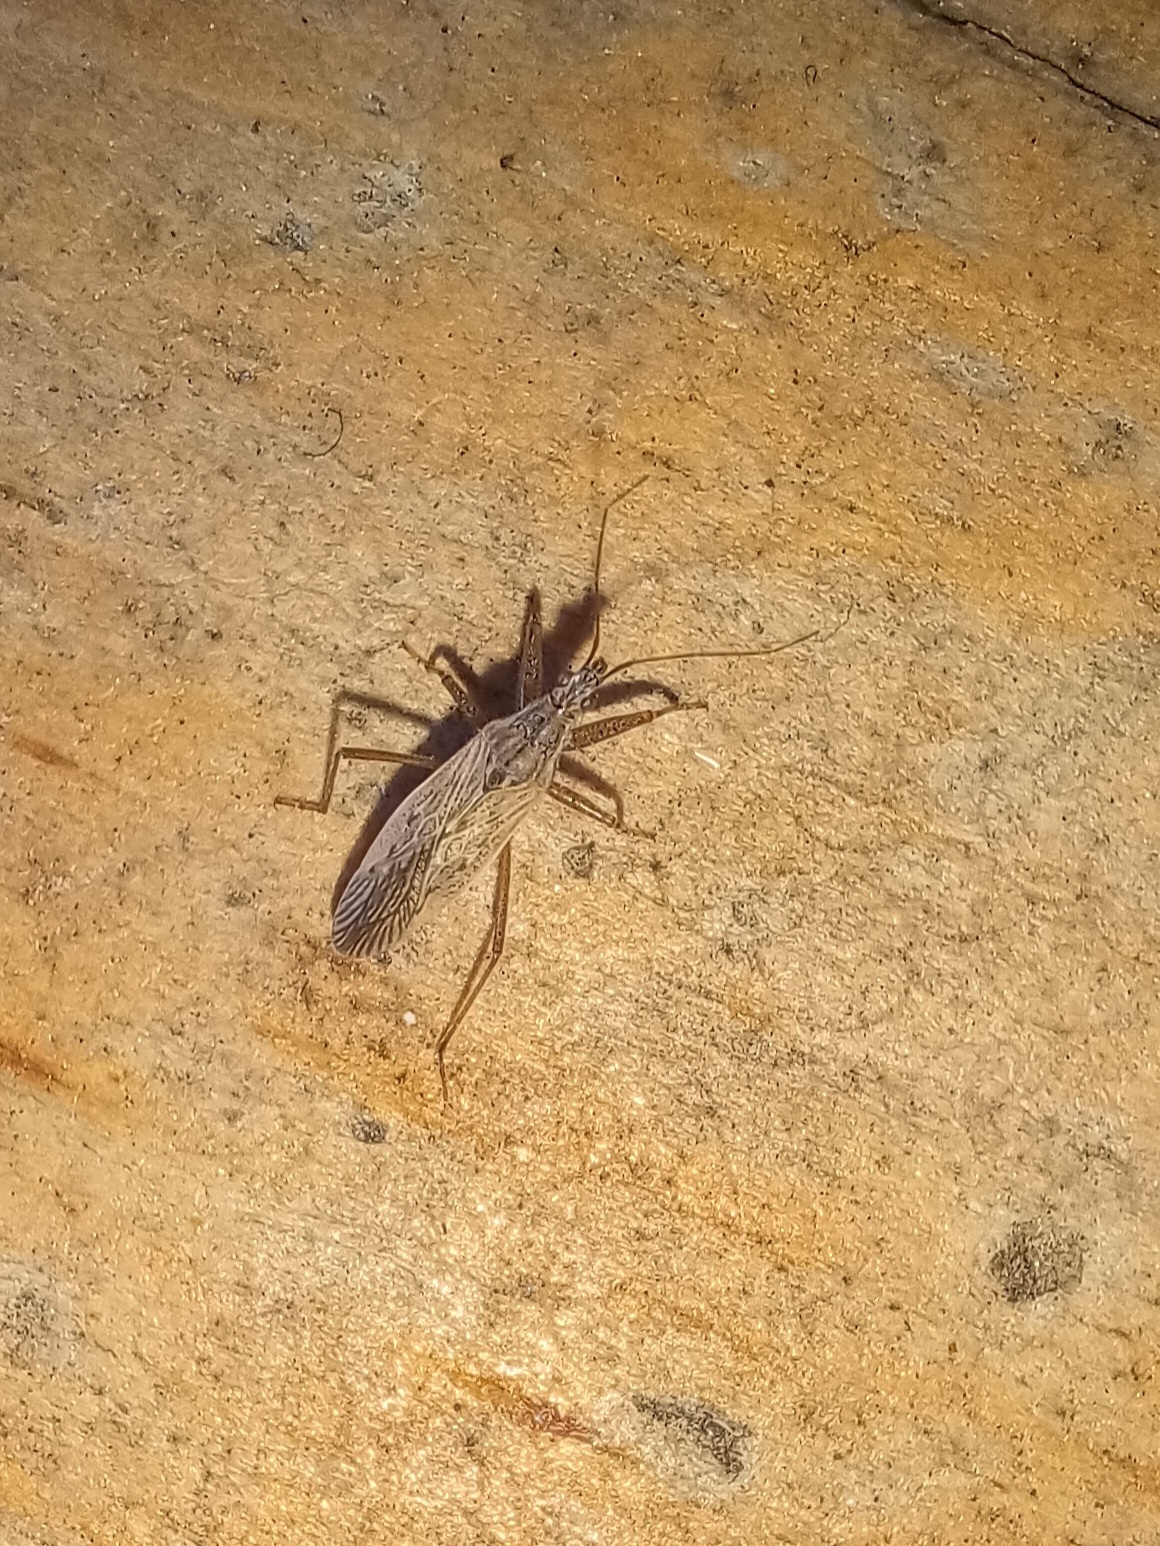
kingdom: Animalia
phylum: Arthropoda
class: Insecta
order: Hemiptera
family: Nabidae
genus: Nabis
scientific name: Nabis americoferus
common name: Common damsel bug
